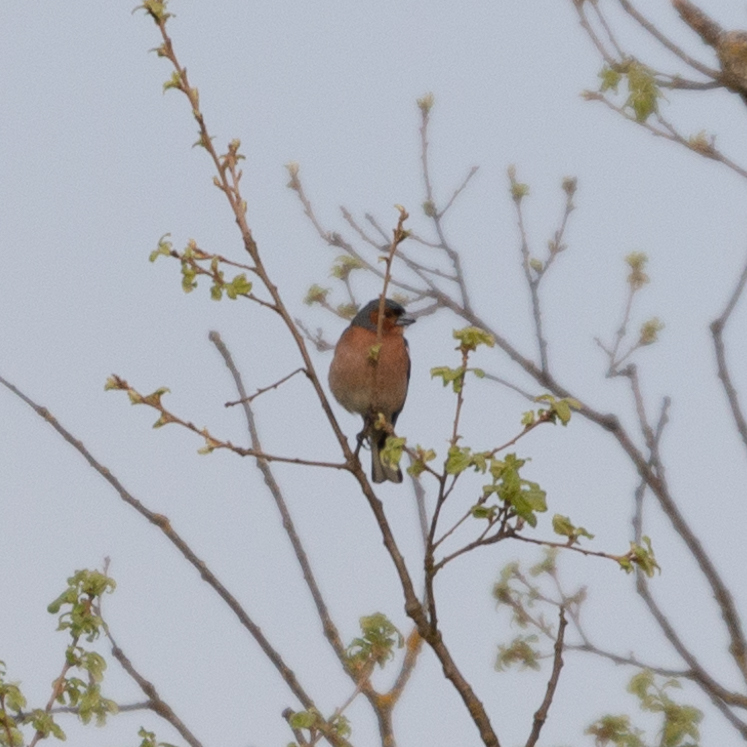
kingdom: Animalia
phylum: Chordata
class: Aves
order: Passeriformes
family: Fringillidae
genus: Fringilla
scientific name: Fringilla coelebs
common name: Common chaffinch
